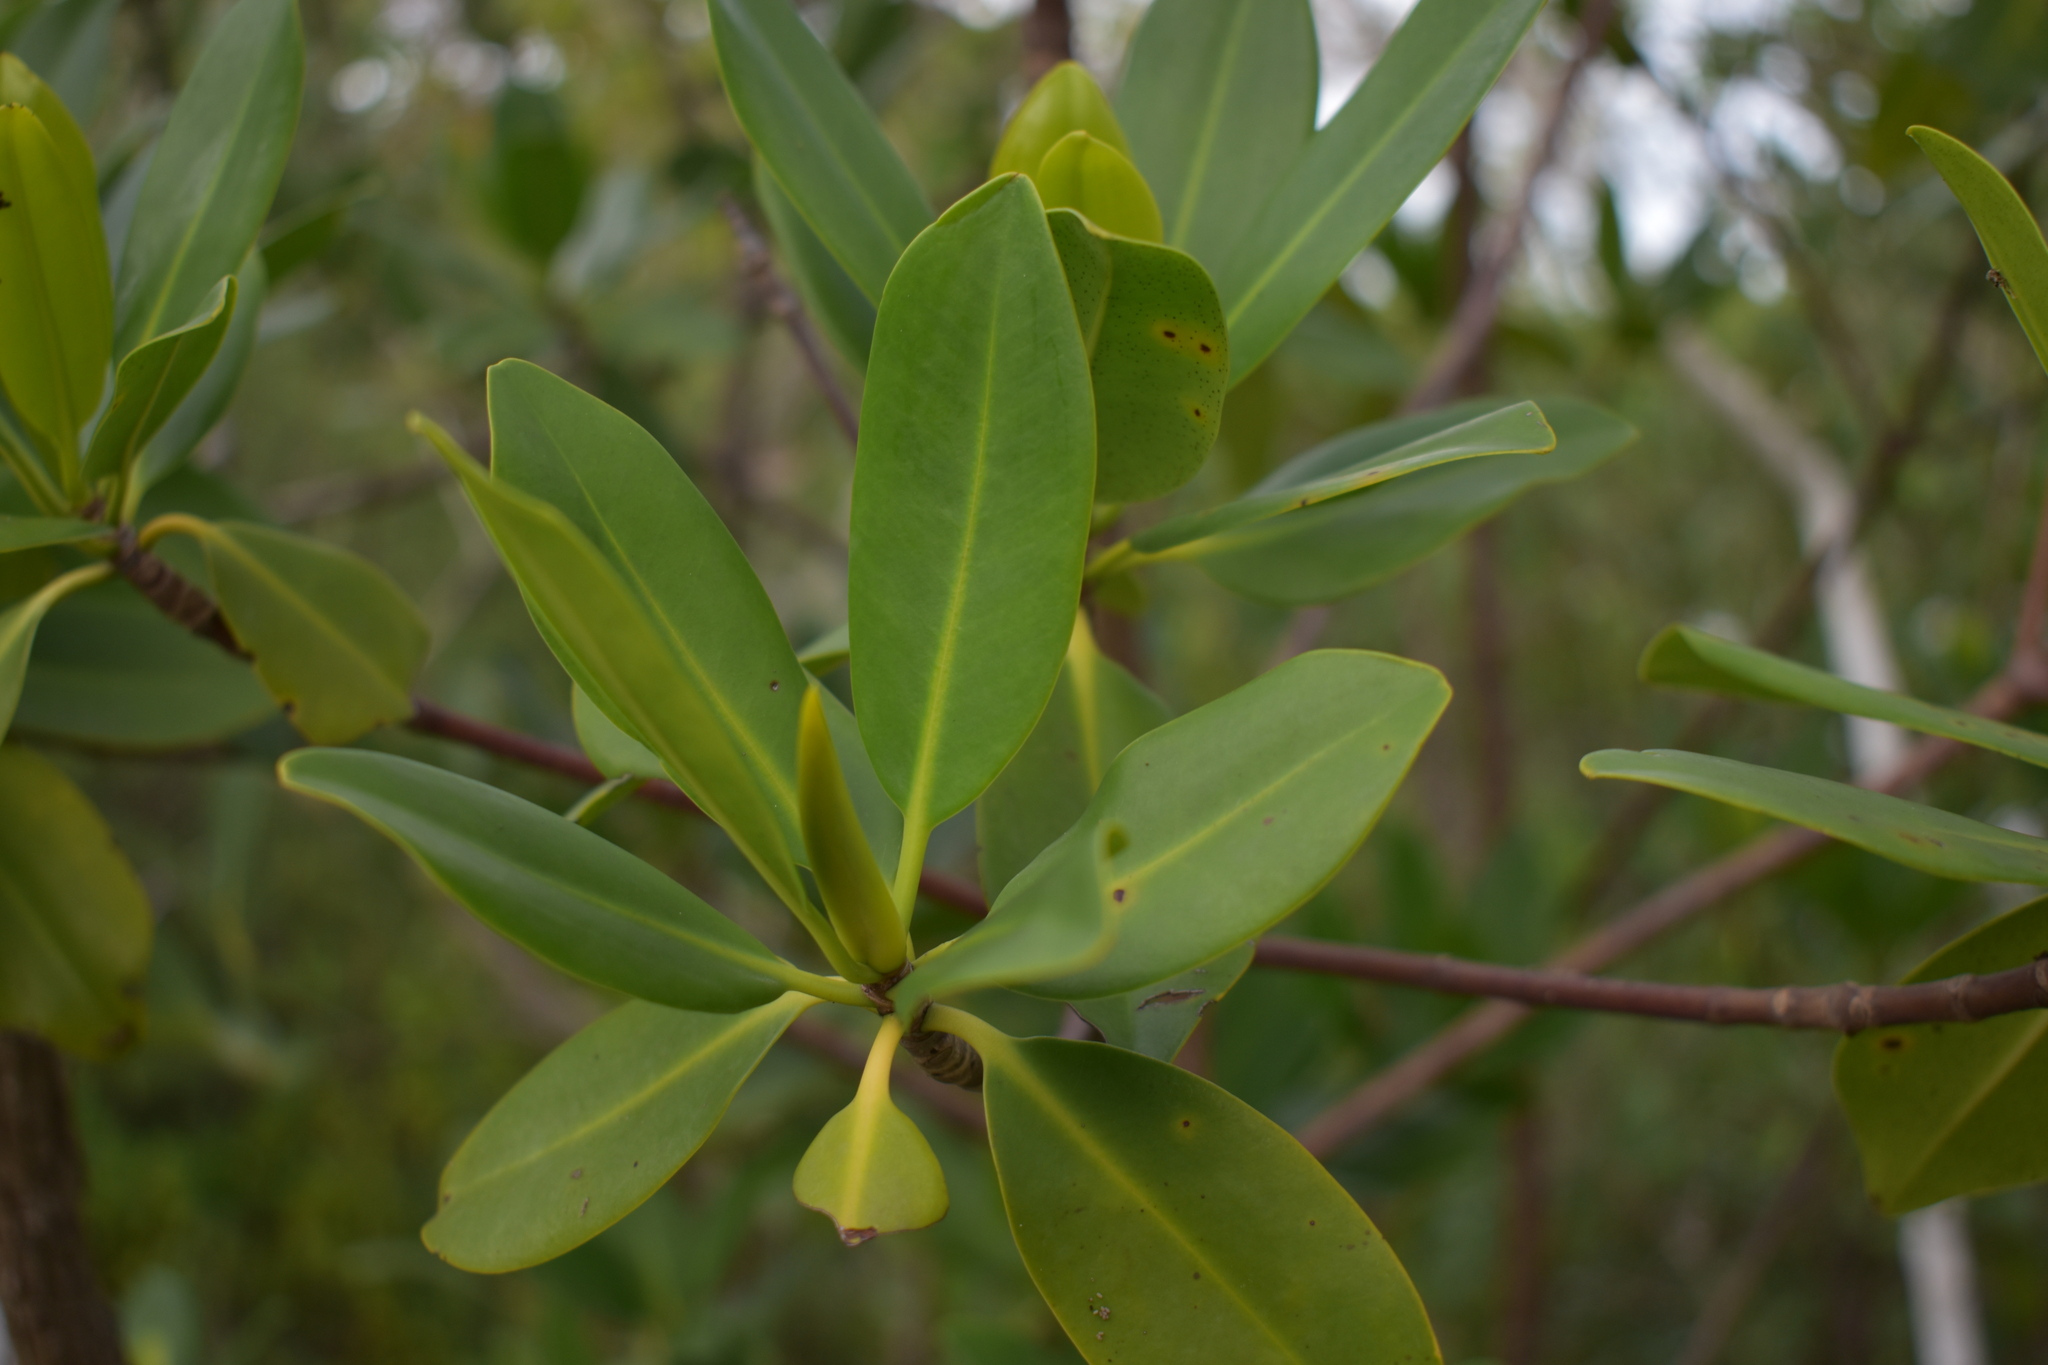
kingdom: Plantae
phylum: Tracheophyta
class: Magnoliopsida
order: Malpighiales
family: Rhizophoraceae
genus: Rhizophora
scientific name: Rhizophora mangle
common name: Red mangrove
